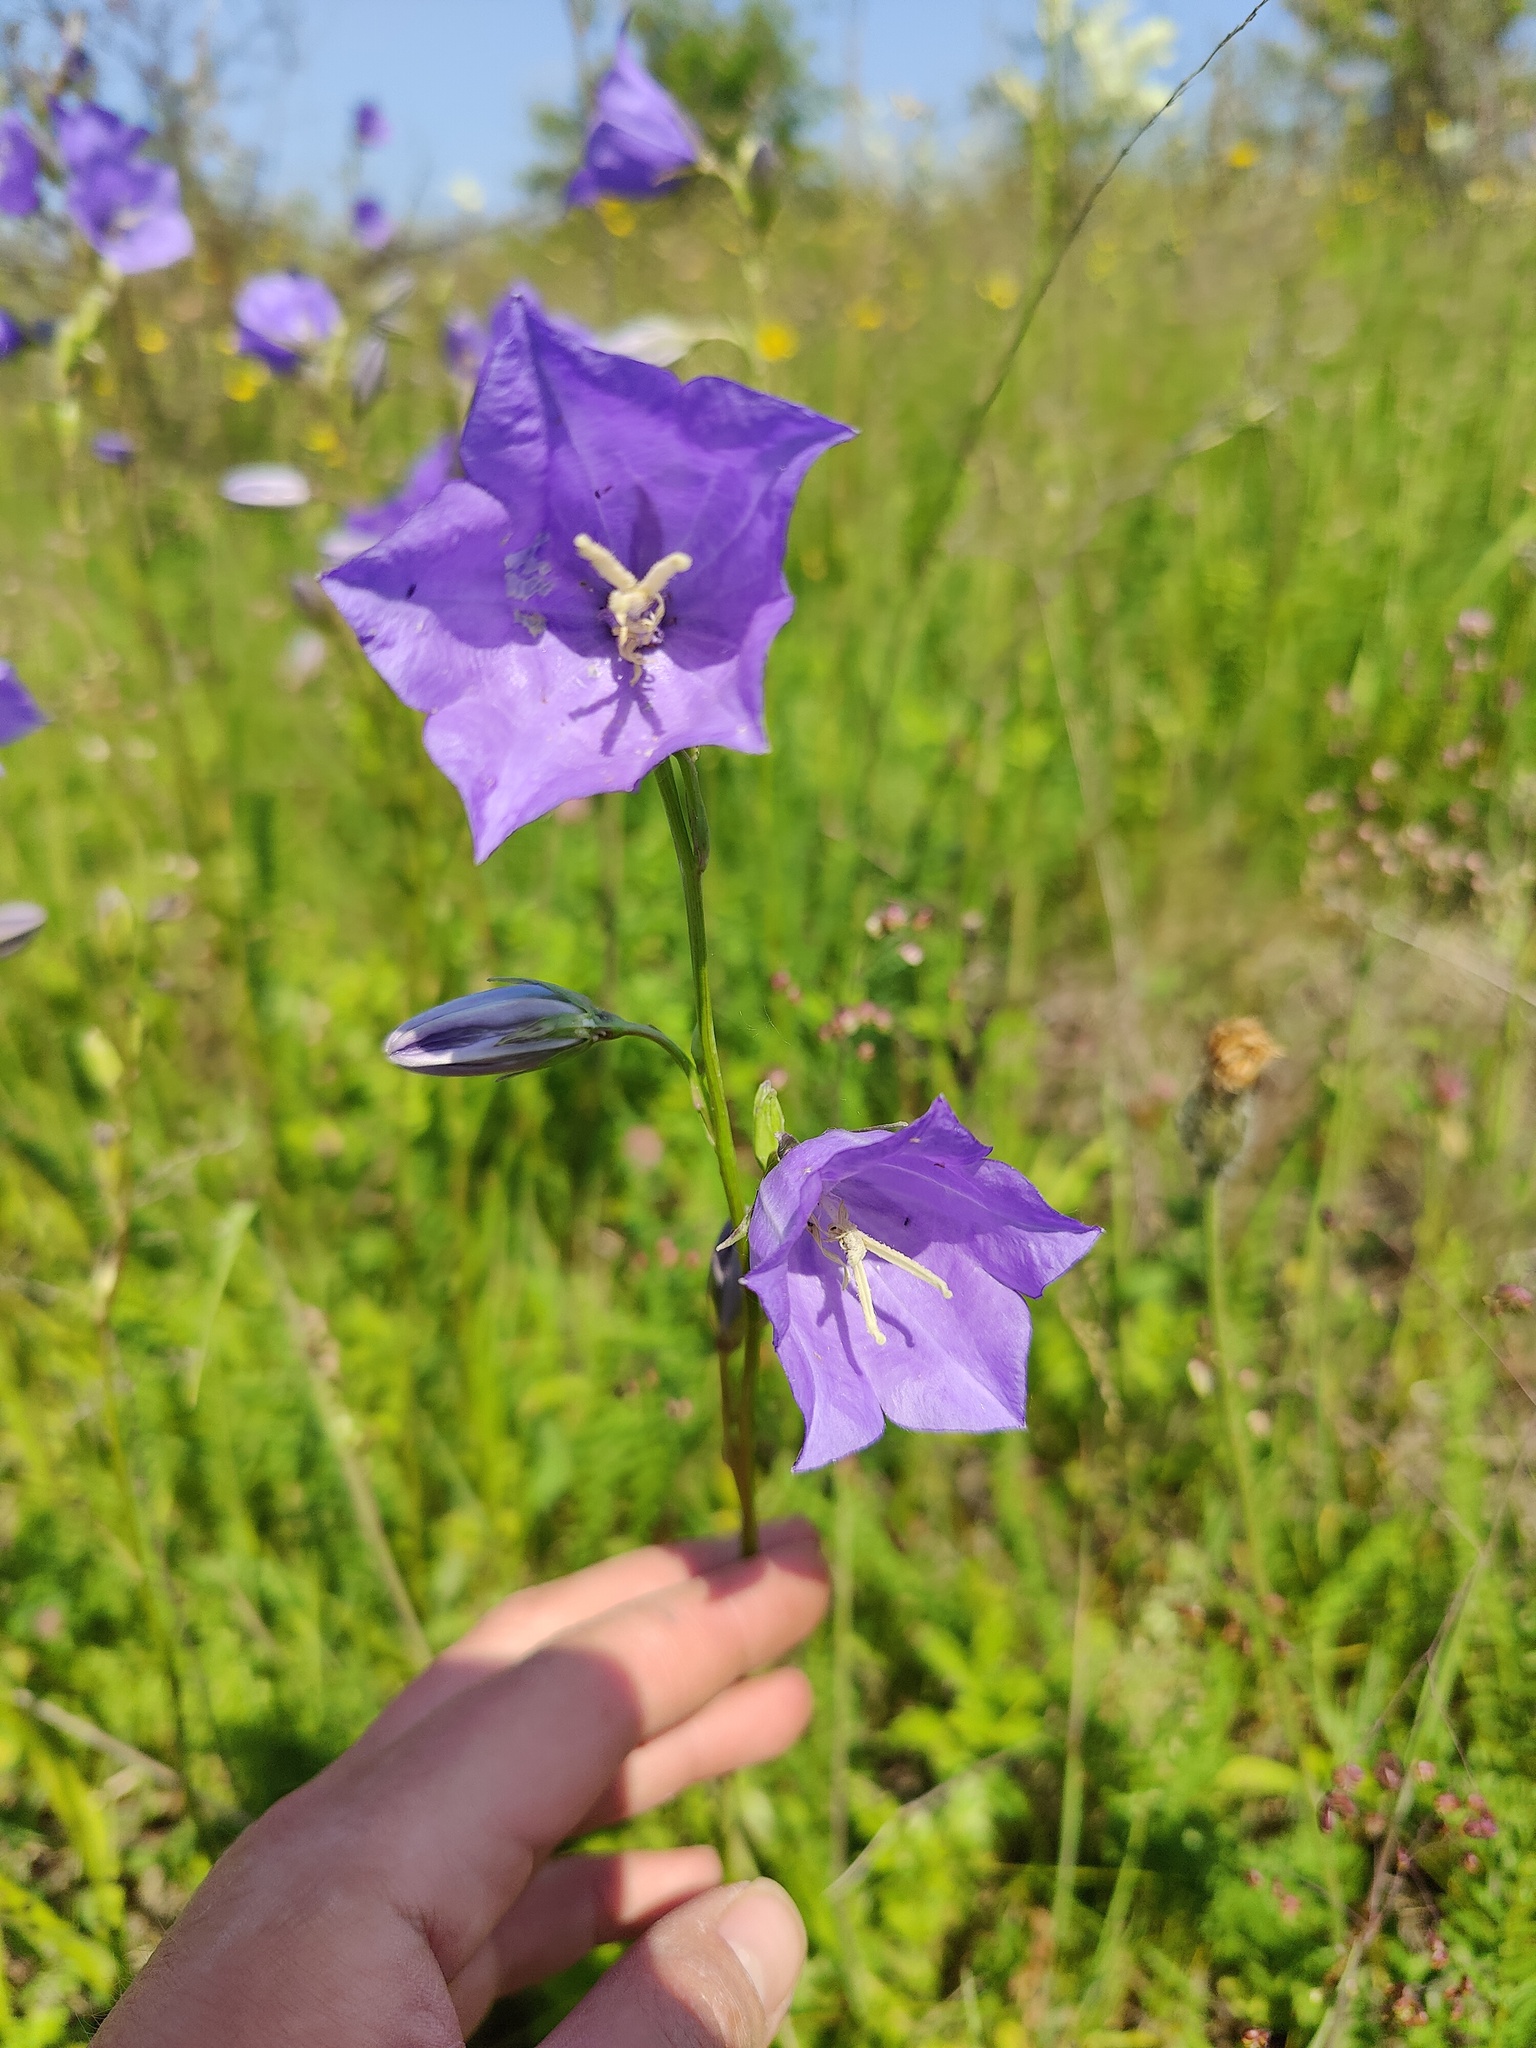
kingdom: Plantae
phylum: Tracheophyta
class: Magnoliopsida
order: Asterales
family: Campanulaceae
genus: Campanula
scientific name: Campanula persicifolia
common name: Peach-leaved bellflower
